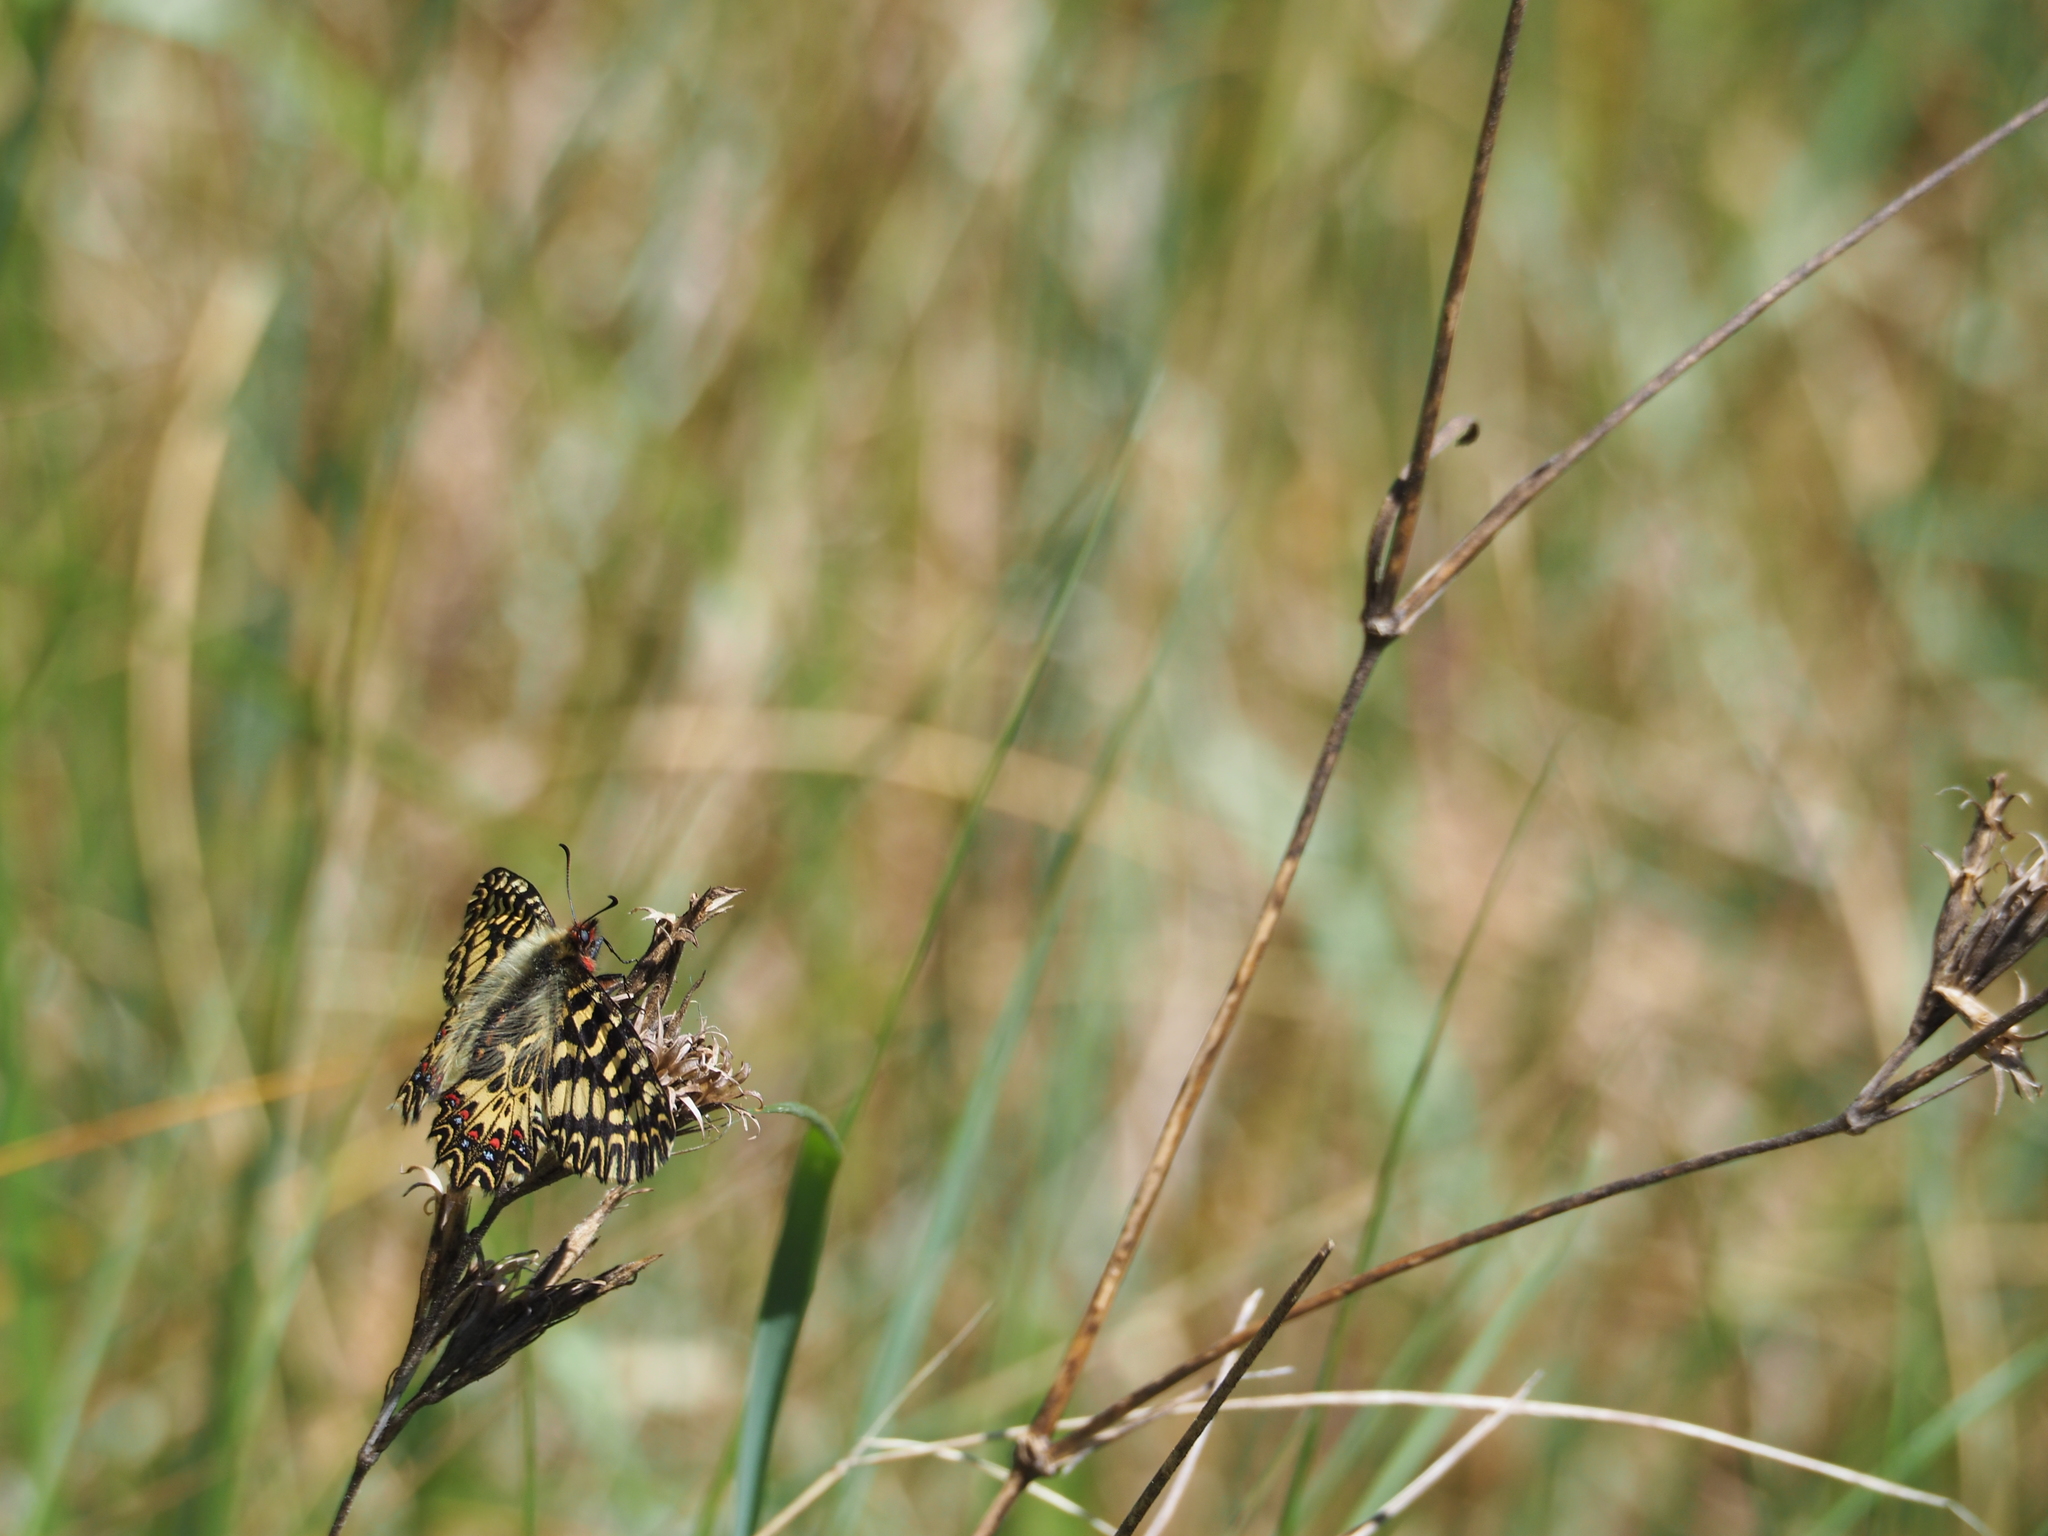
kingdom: Animalia
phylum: Arthropoda
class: Insecta
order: Lepidoptera
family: Papilionidae
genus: Zerynthia
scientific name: Zerynthia polyxena
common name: Southern festoon
